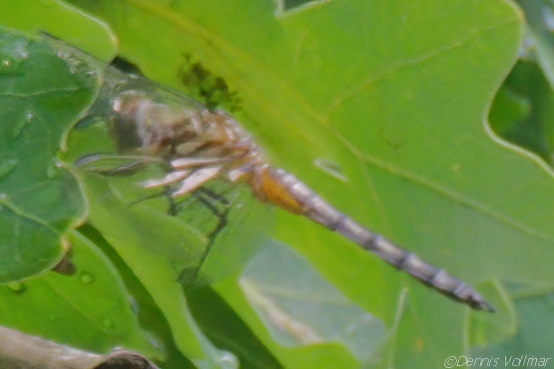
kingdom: Animalia
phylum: Arthropoda
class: Insecta
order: Odonata
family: Libellulidae
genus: Pachydiplax
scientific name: Pachydiplax longipennis
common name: Blue dasher
